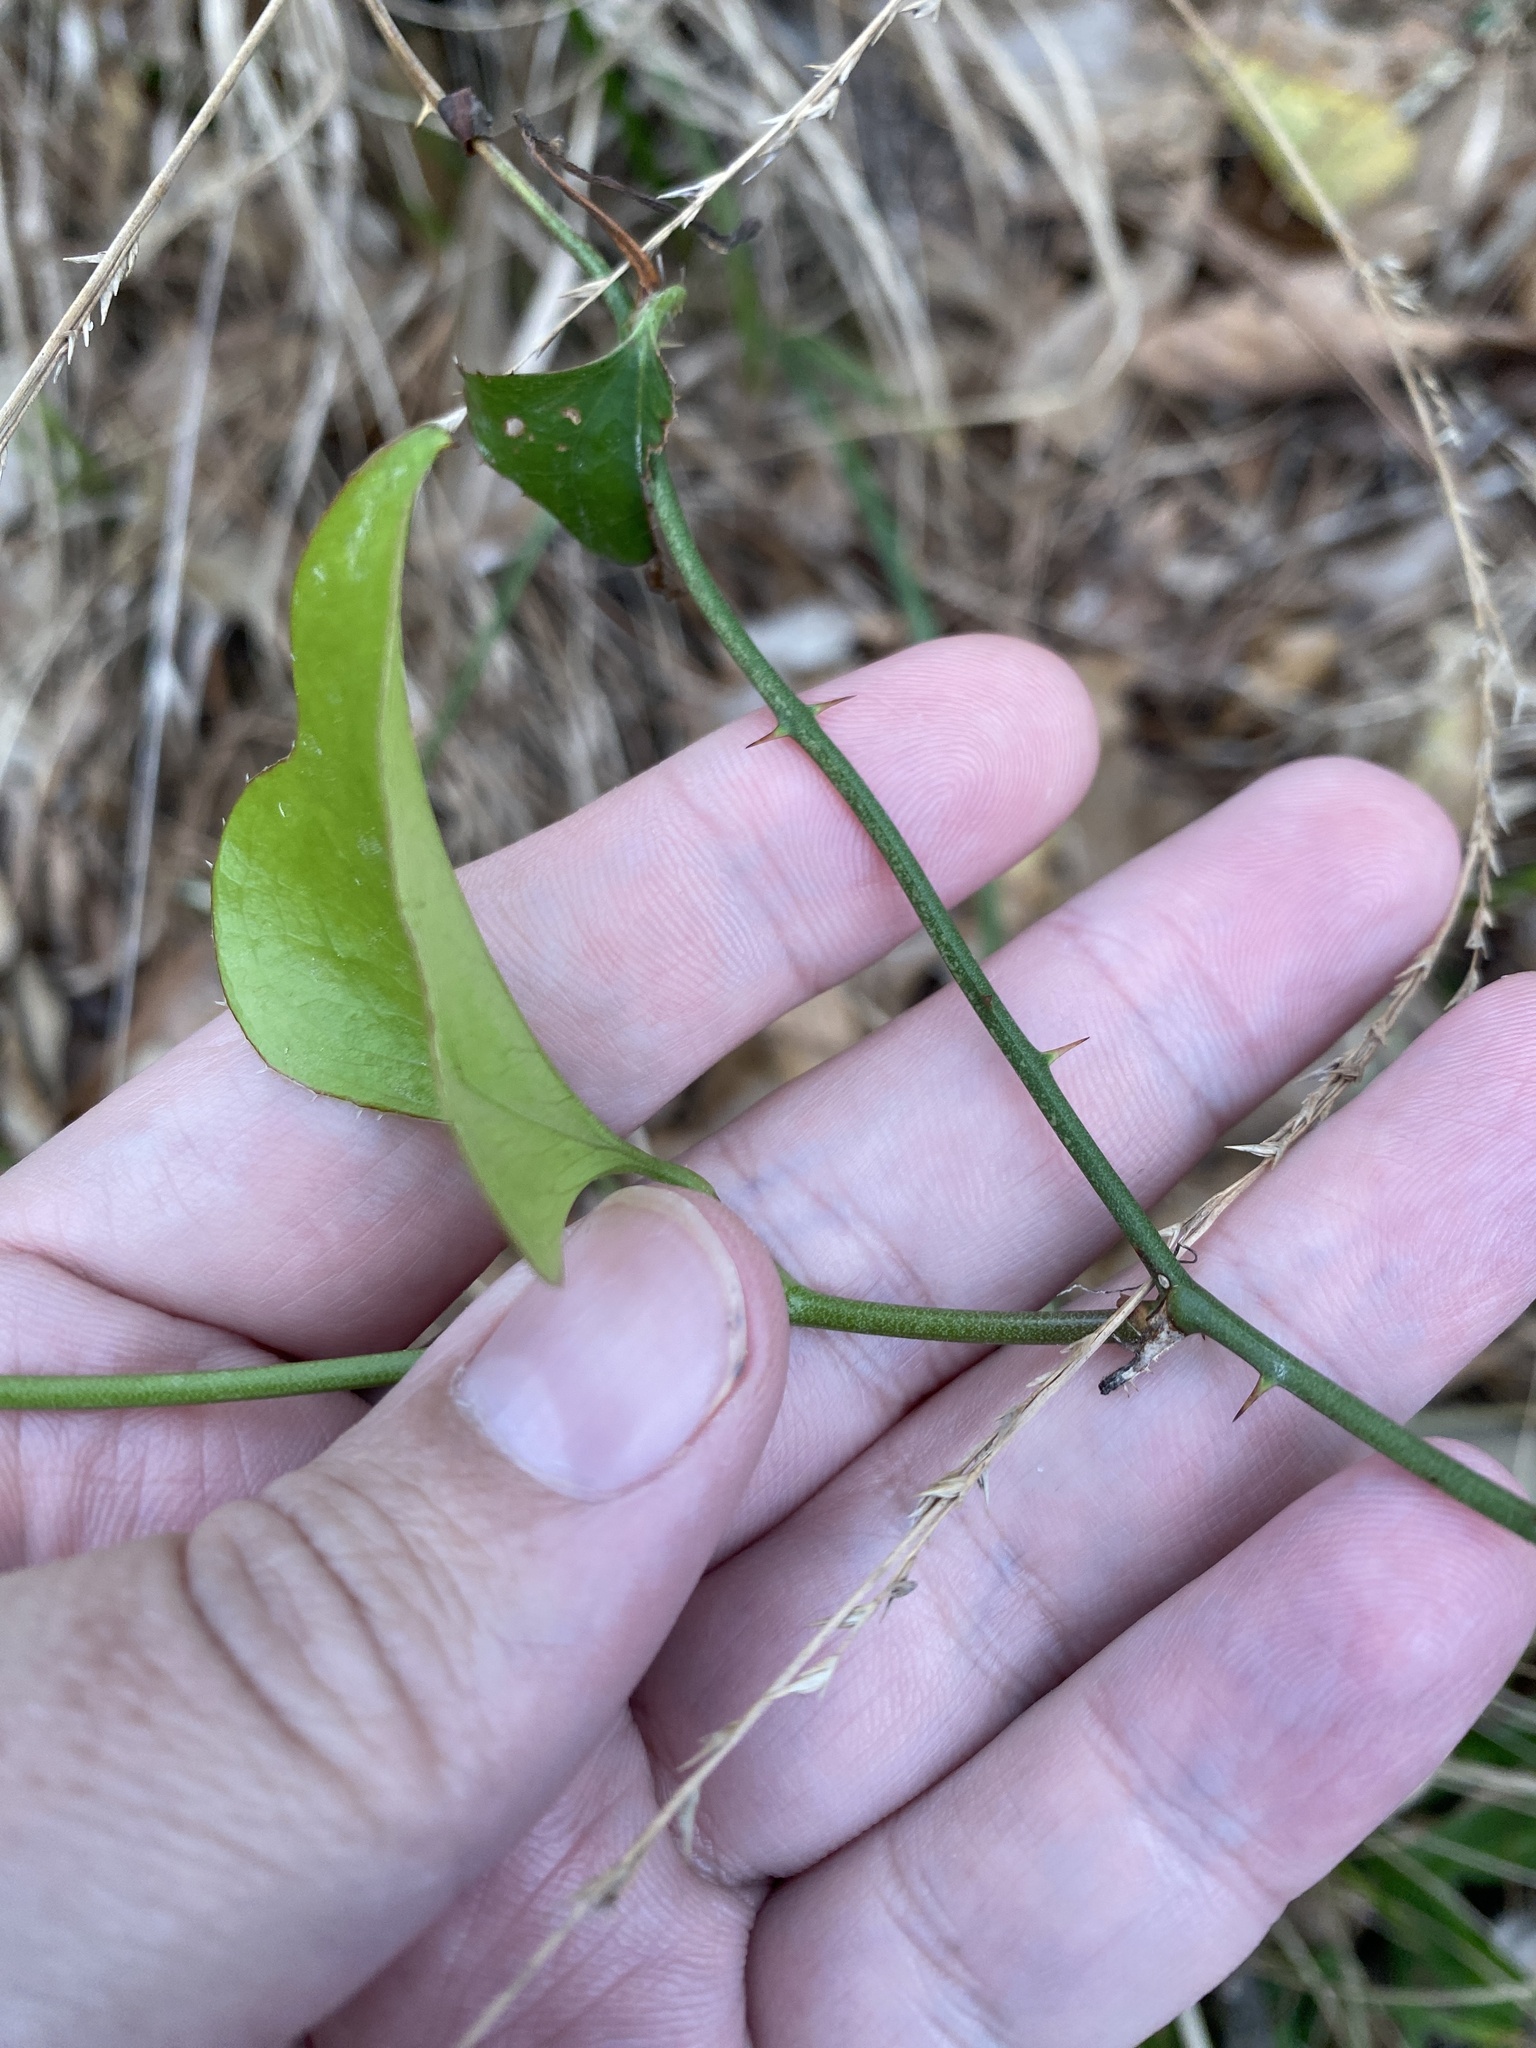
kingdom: Plantae
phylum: Tracheophyta
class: Liliopsida
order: Liliales
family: Smilacaceae
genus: Smilax
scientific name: Smilax bona-nox
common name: Catbrier
